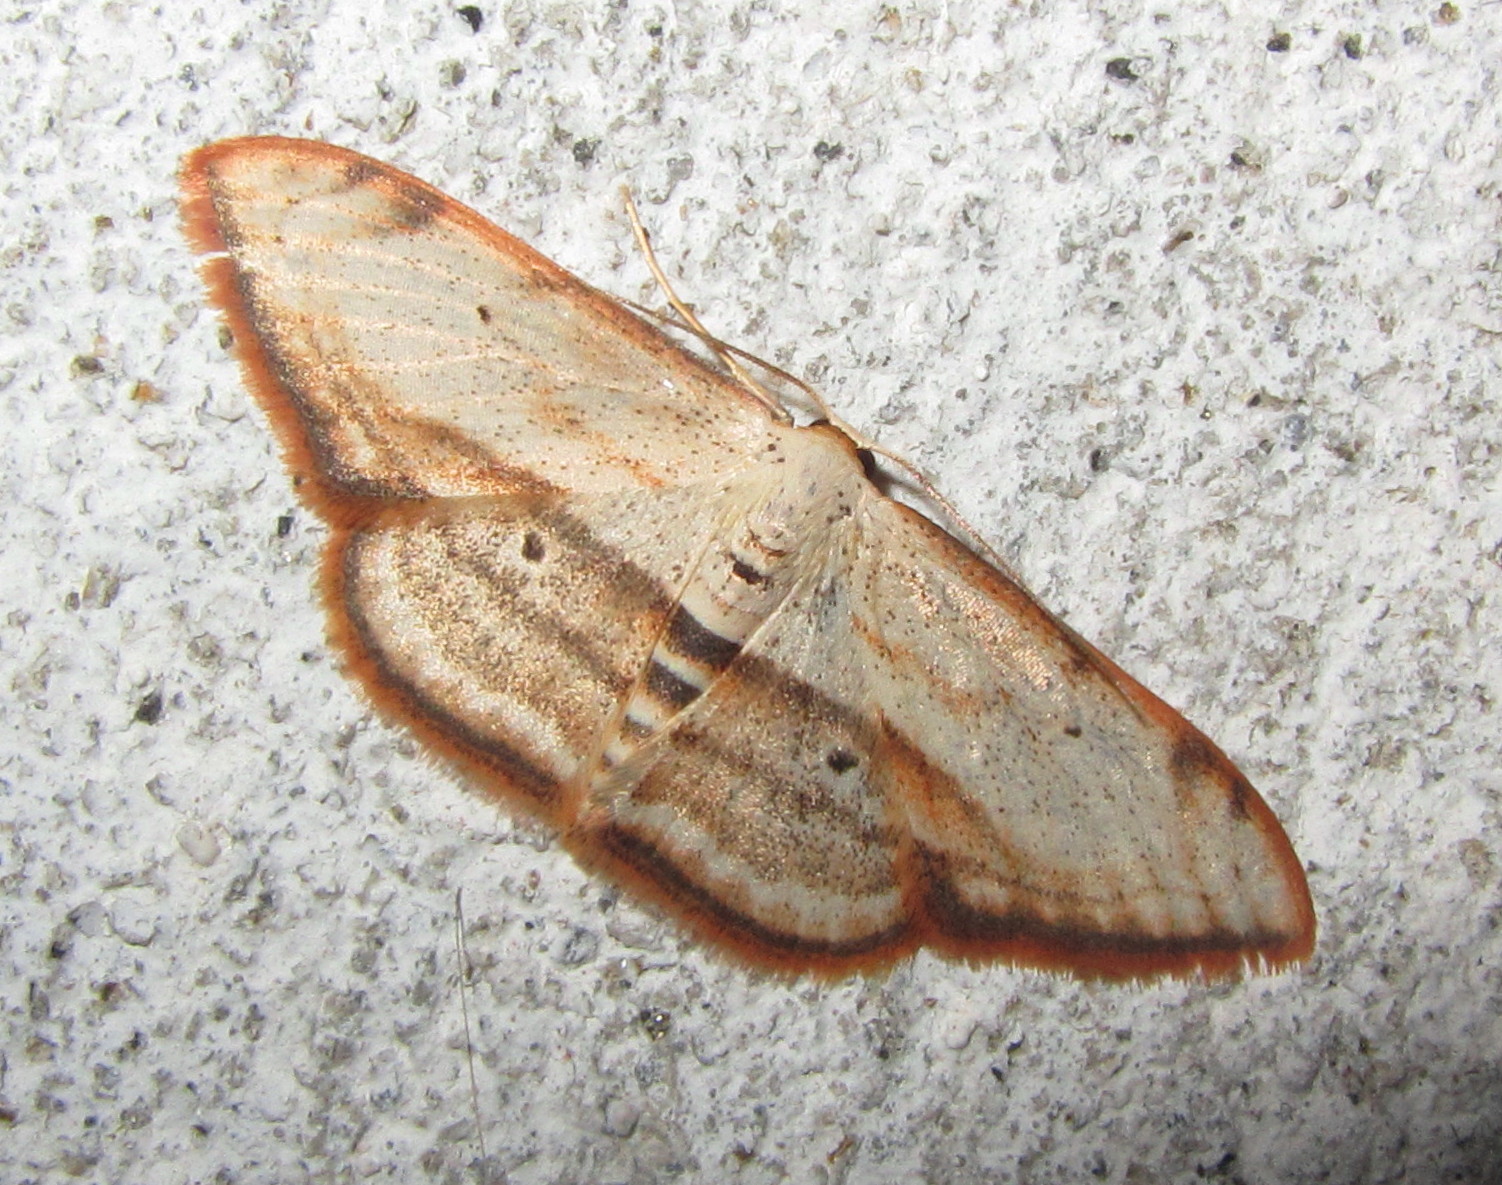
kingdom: Animalia
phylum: Arthropoda
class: Insecta
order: Lepidoptera
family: Geometridae
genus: Scopula
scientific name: Scopula ferrilineata
